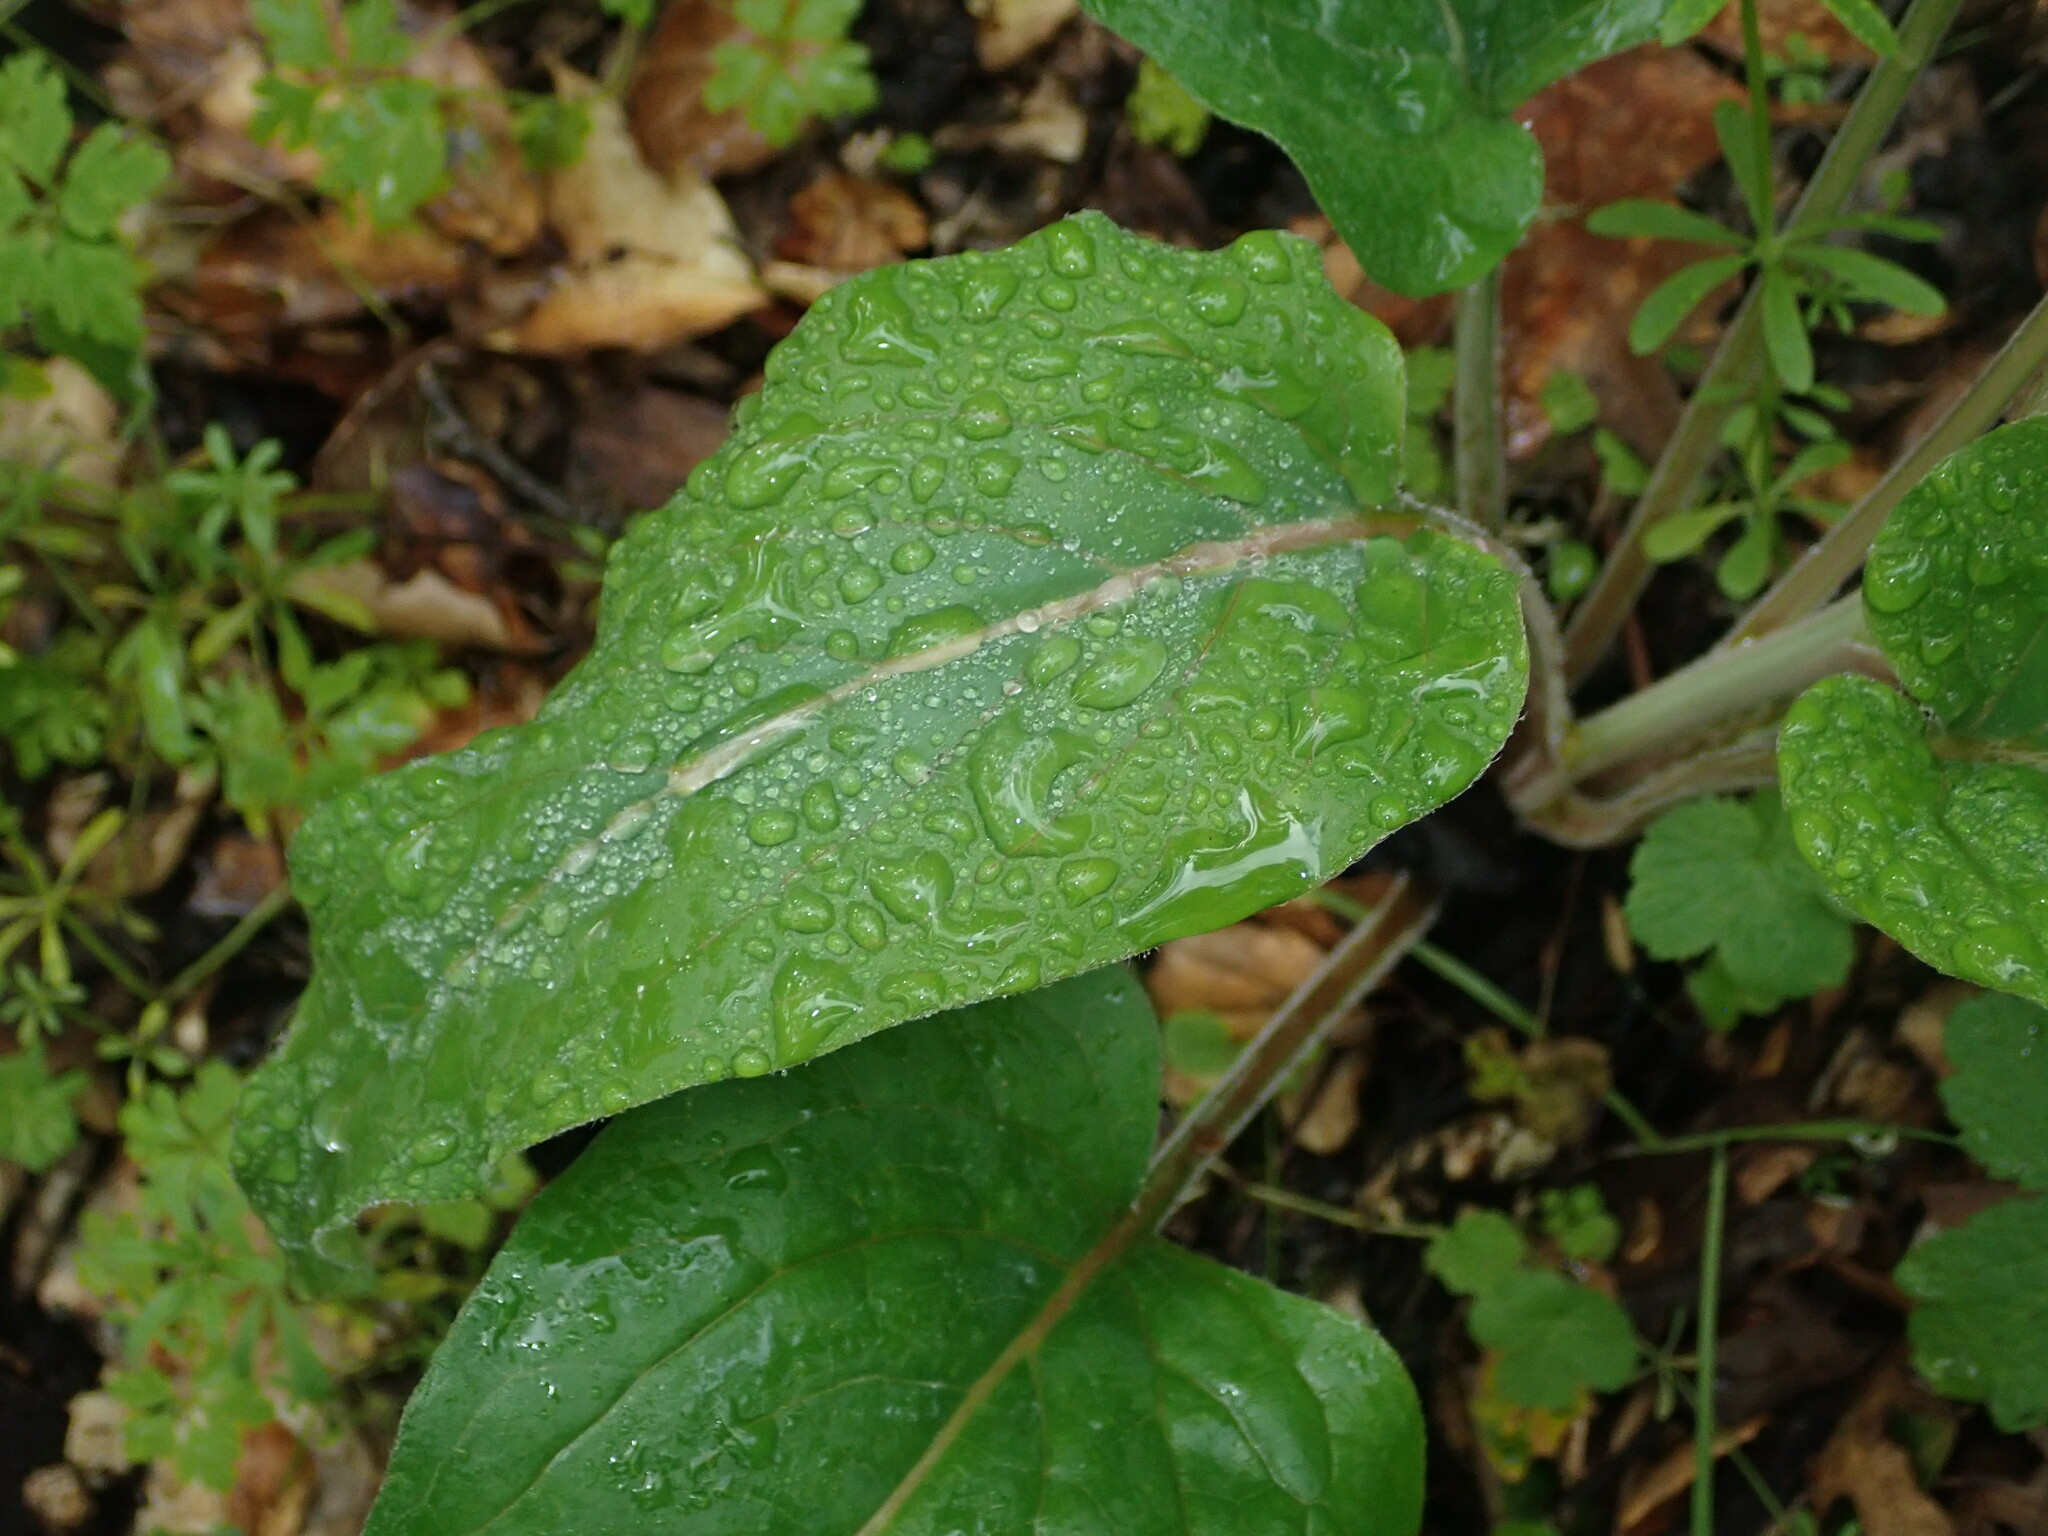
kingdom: Plantae
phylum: Tracheophyta
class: Magnoliopsida
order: Boraginales
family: Boraginaceae
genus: Adelinia
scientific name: Adelinia grande
